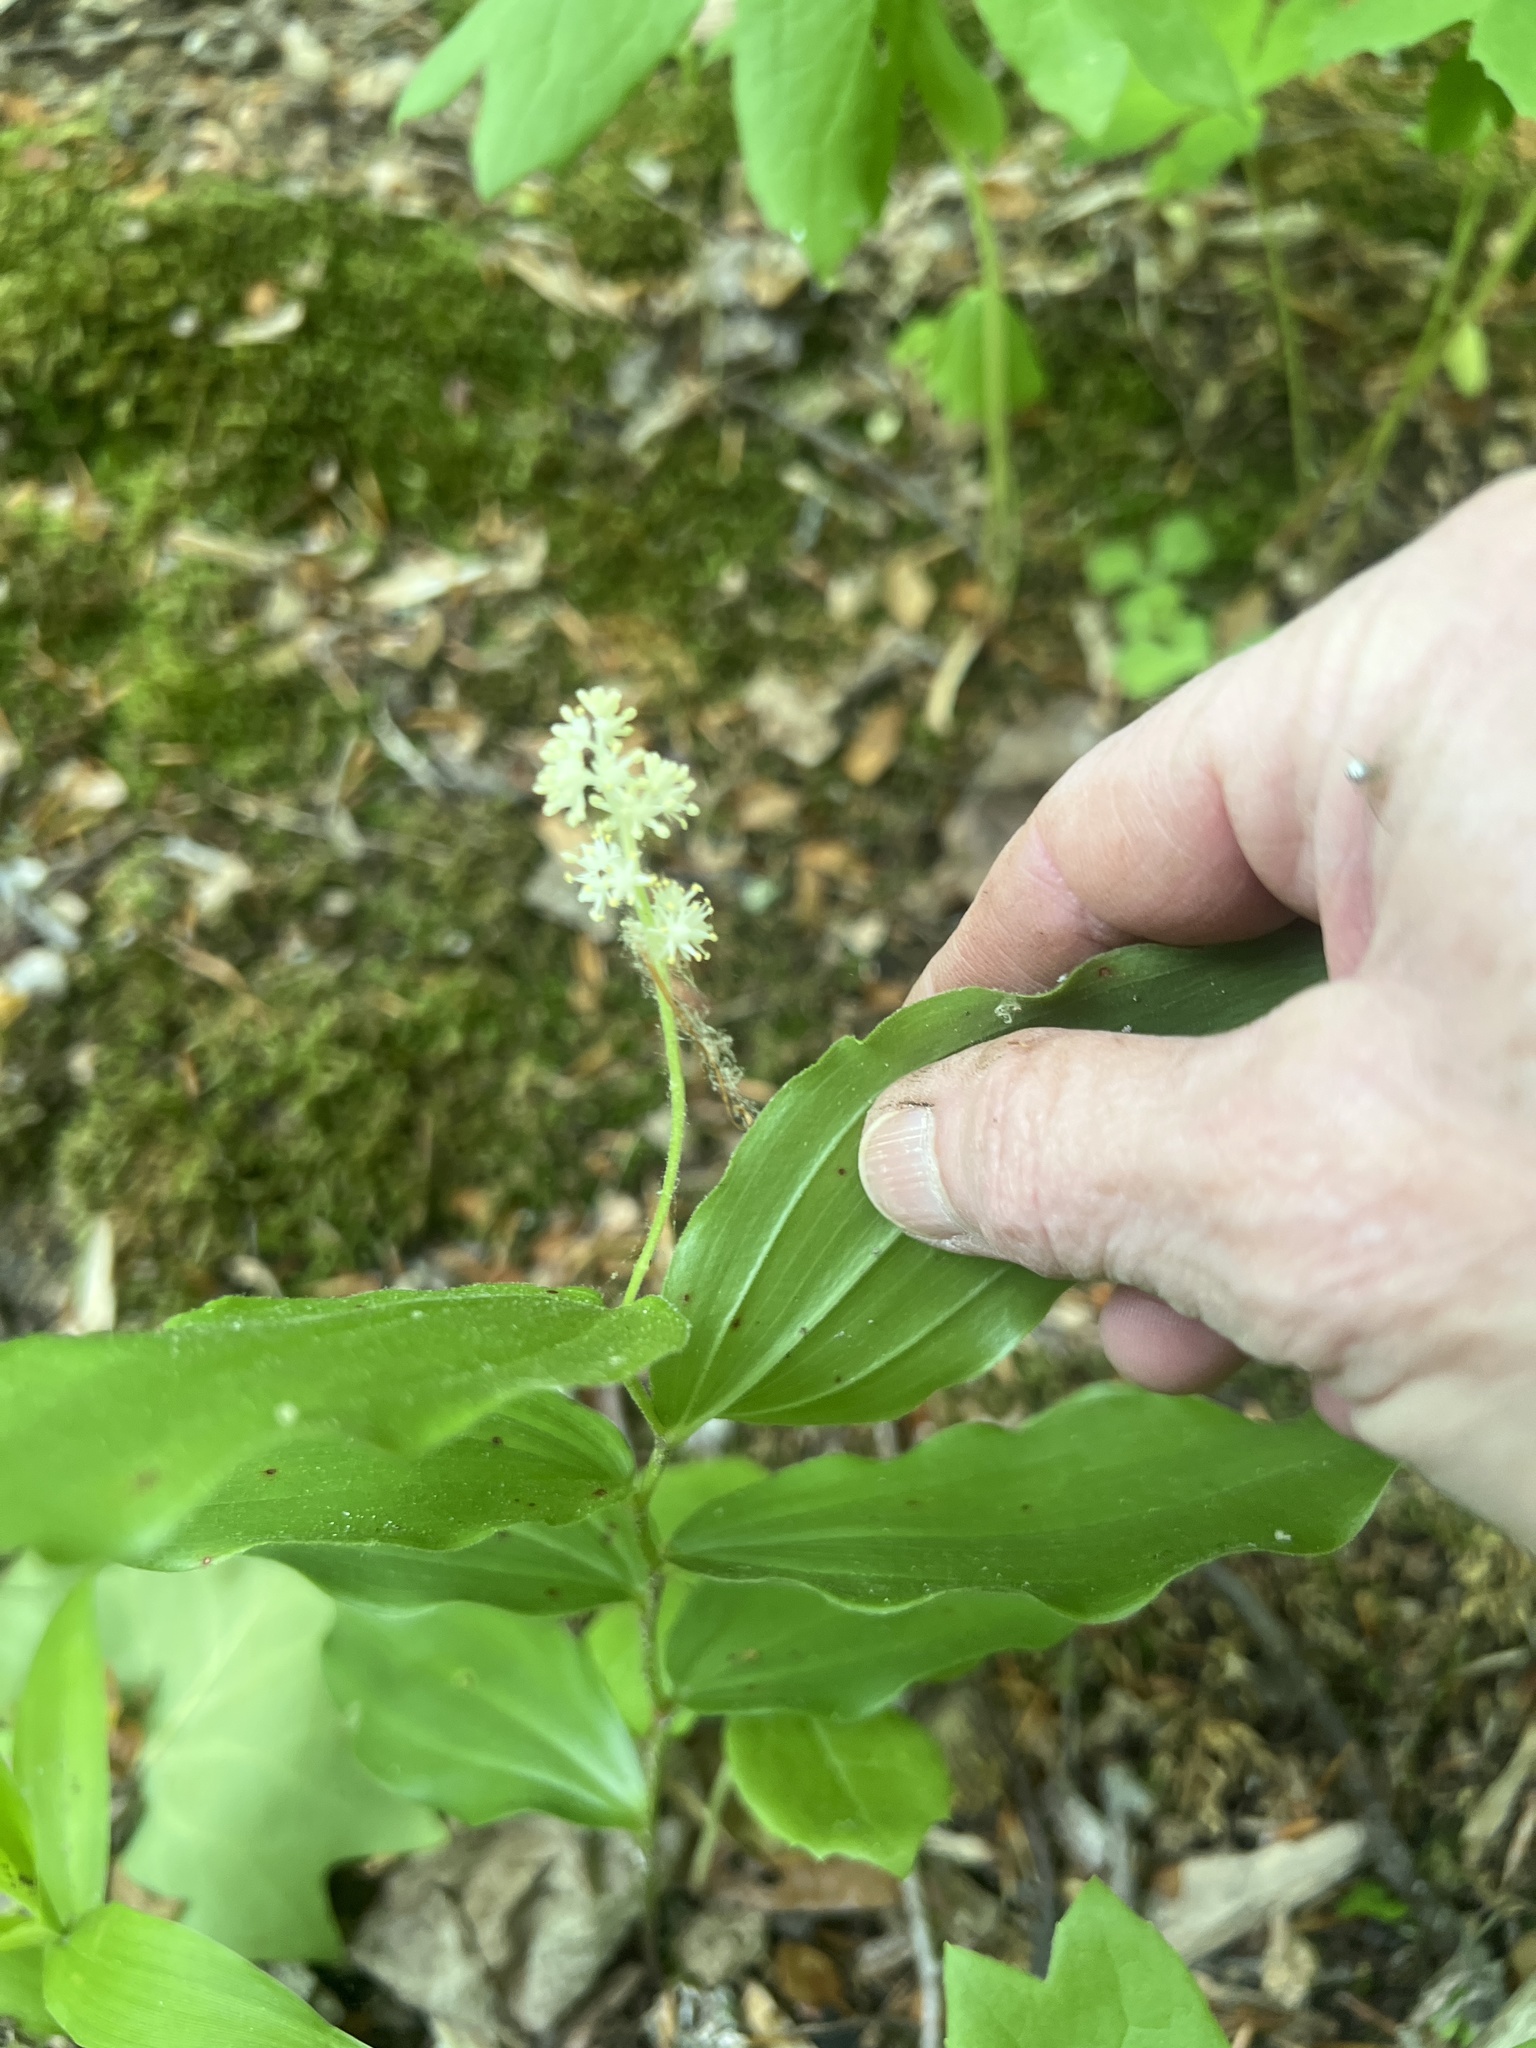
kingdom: Plantae
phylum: Tracheophyta
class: Liliopsida
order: Asparagales
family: Asparagaceae
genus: Maianthemum
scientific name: Maianthemum racemosum
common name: False spikenard
